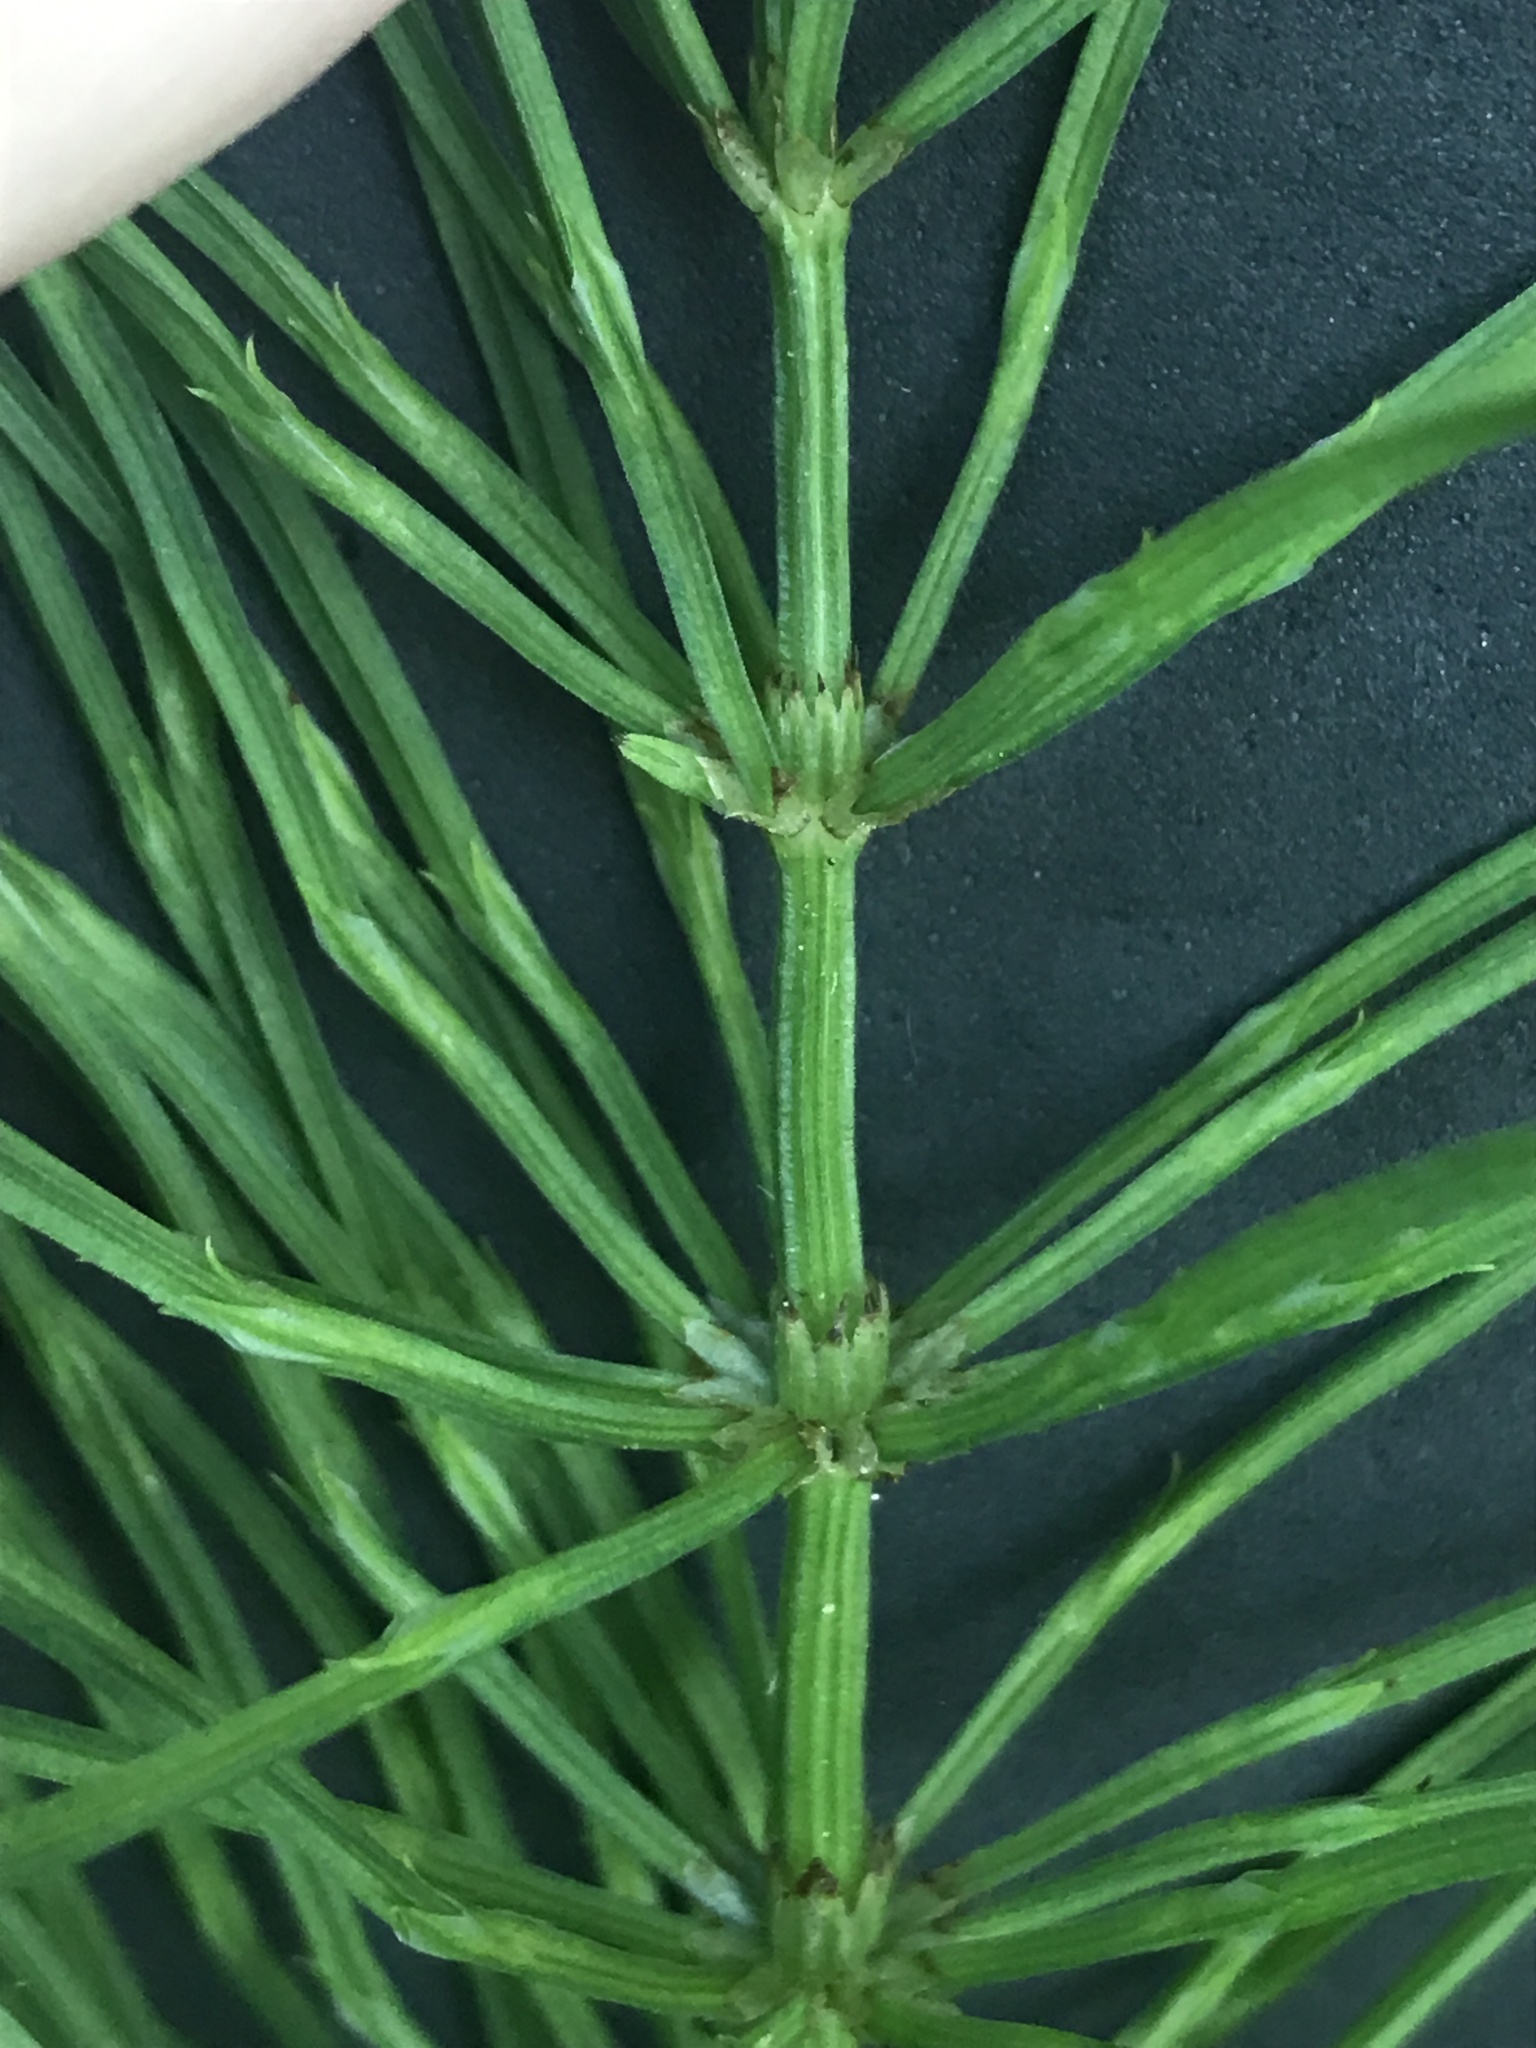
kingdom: Plantae
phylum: Tracheophyta
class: Polypodiopsida
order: Equisetales
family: Equisetaceae
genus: Equisetum
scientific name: Equisetum arvense
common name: Field horsetail
